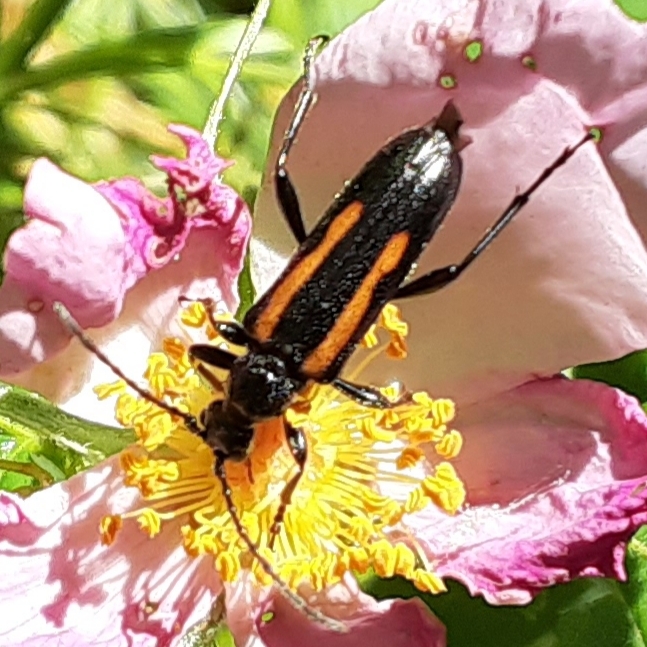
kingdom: Animalia
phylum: Arthropoda
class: Insecta
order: Coleoptera
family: Cerambycidae
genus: Strangalepta
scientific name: Strangalepta abbreviata
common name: Strangalepta flower longhorn beetle
